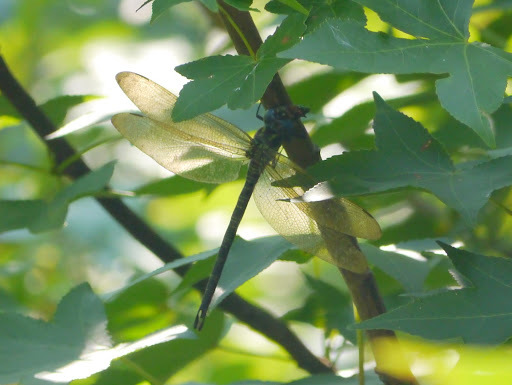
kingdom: Animalia
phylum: Arthropoda
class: Insecta
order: Odonata
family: Aeshnidae
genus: Epiaeschna
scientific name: Epiaeschna heros
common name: Swamp darner
